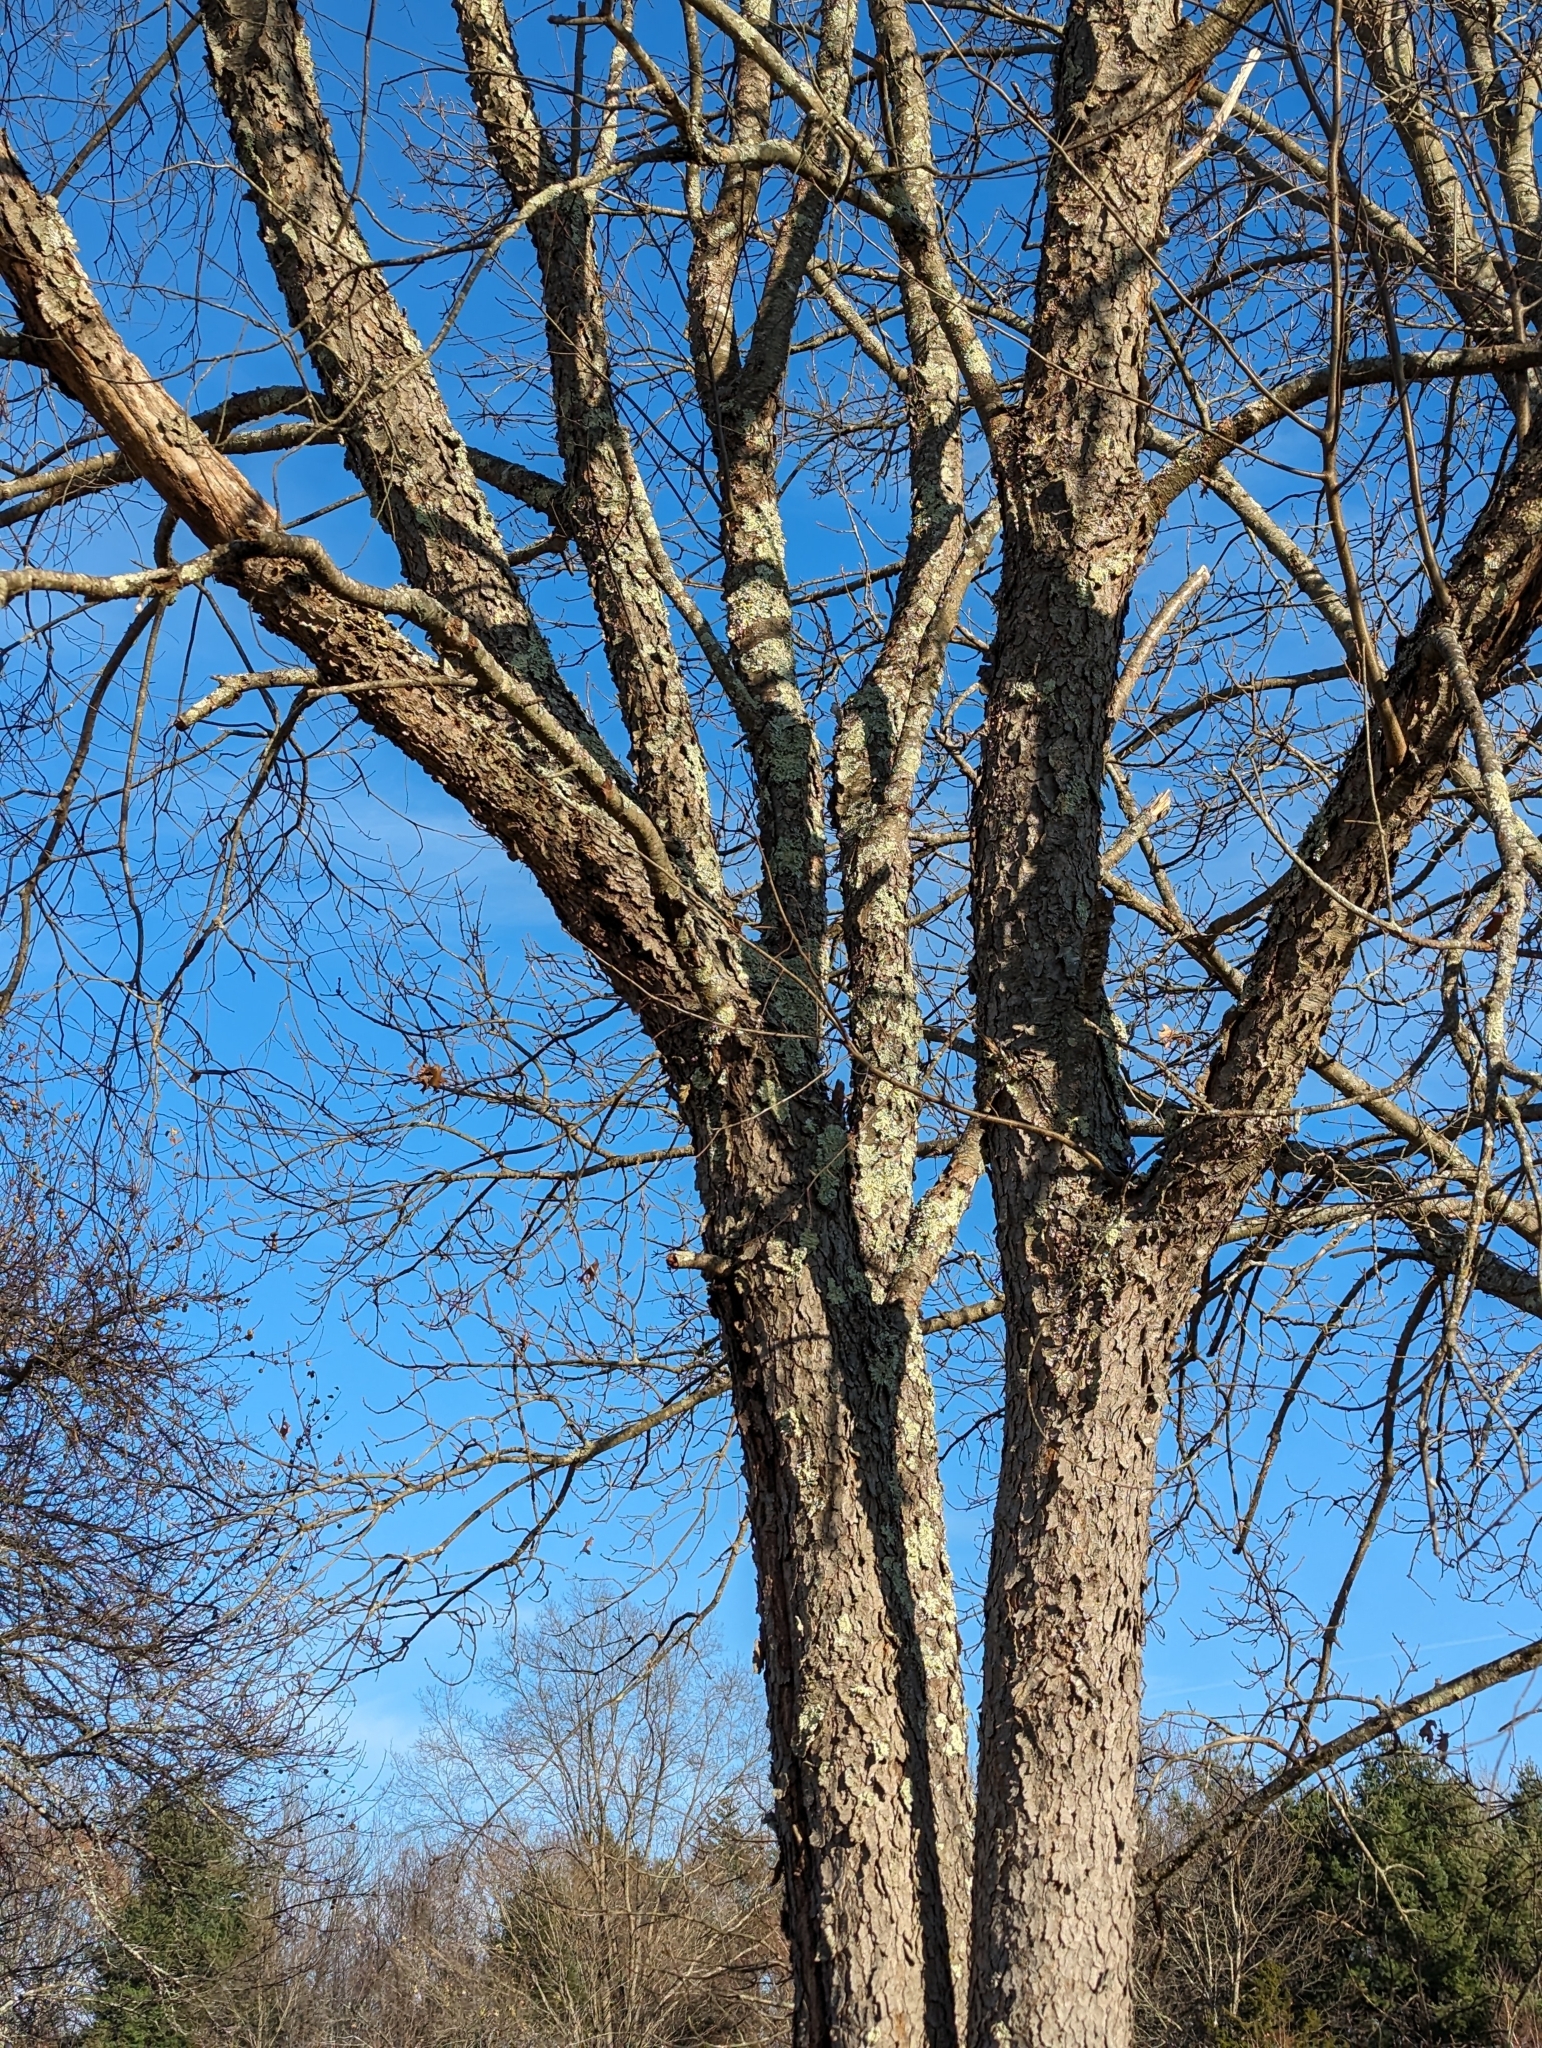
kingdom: Plantae
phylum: Tracheophyta
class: Magnoliopsida
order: Rosales
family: Rosaceae
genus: Prunus
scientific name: Prunus serotina
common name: Black cherry
